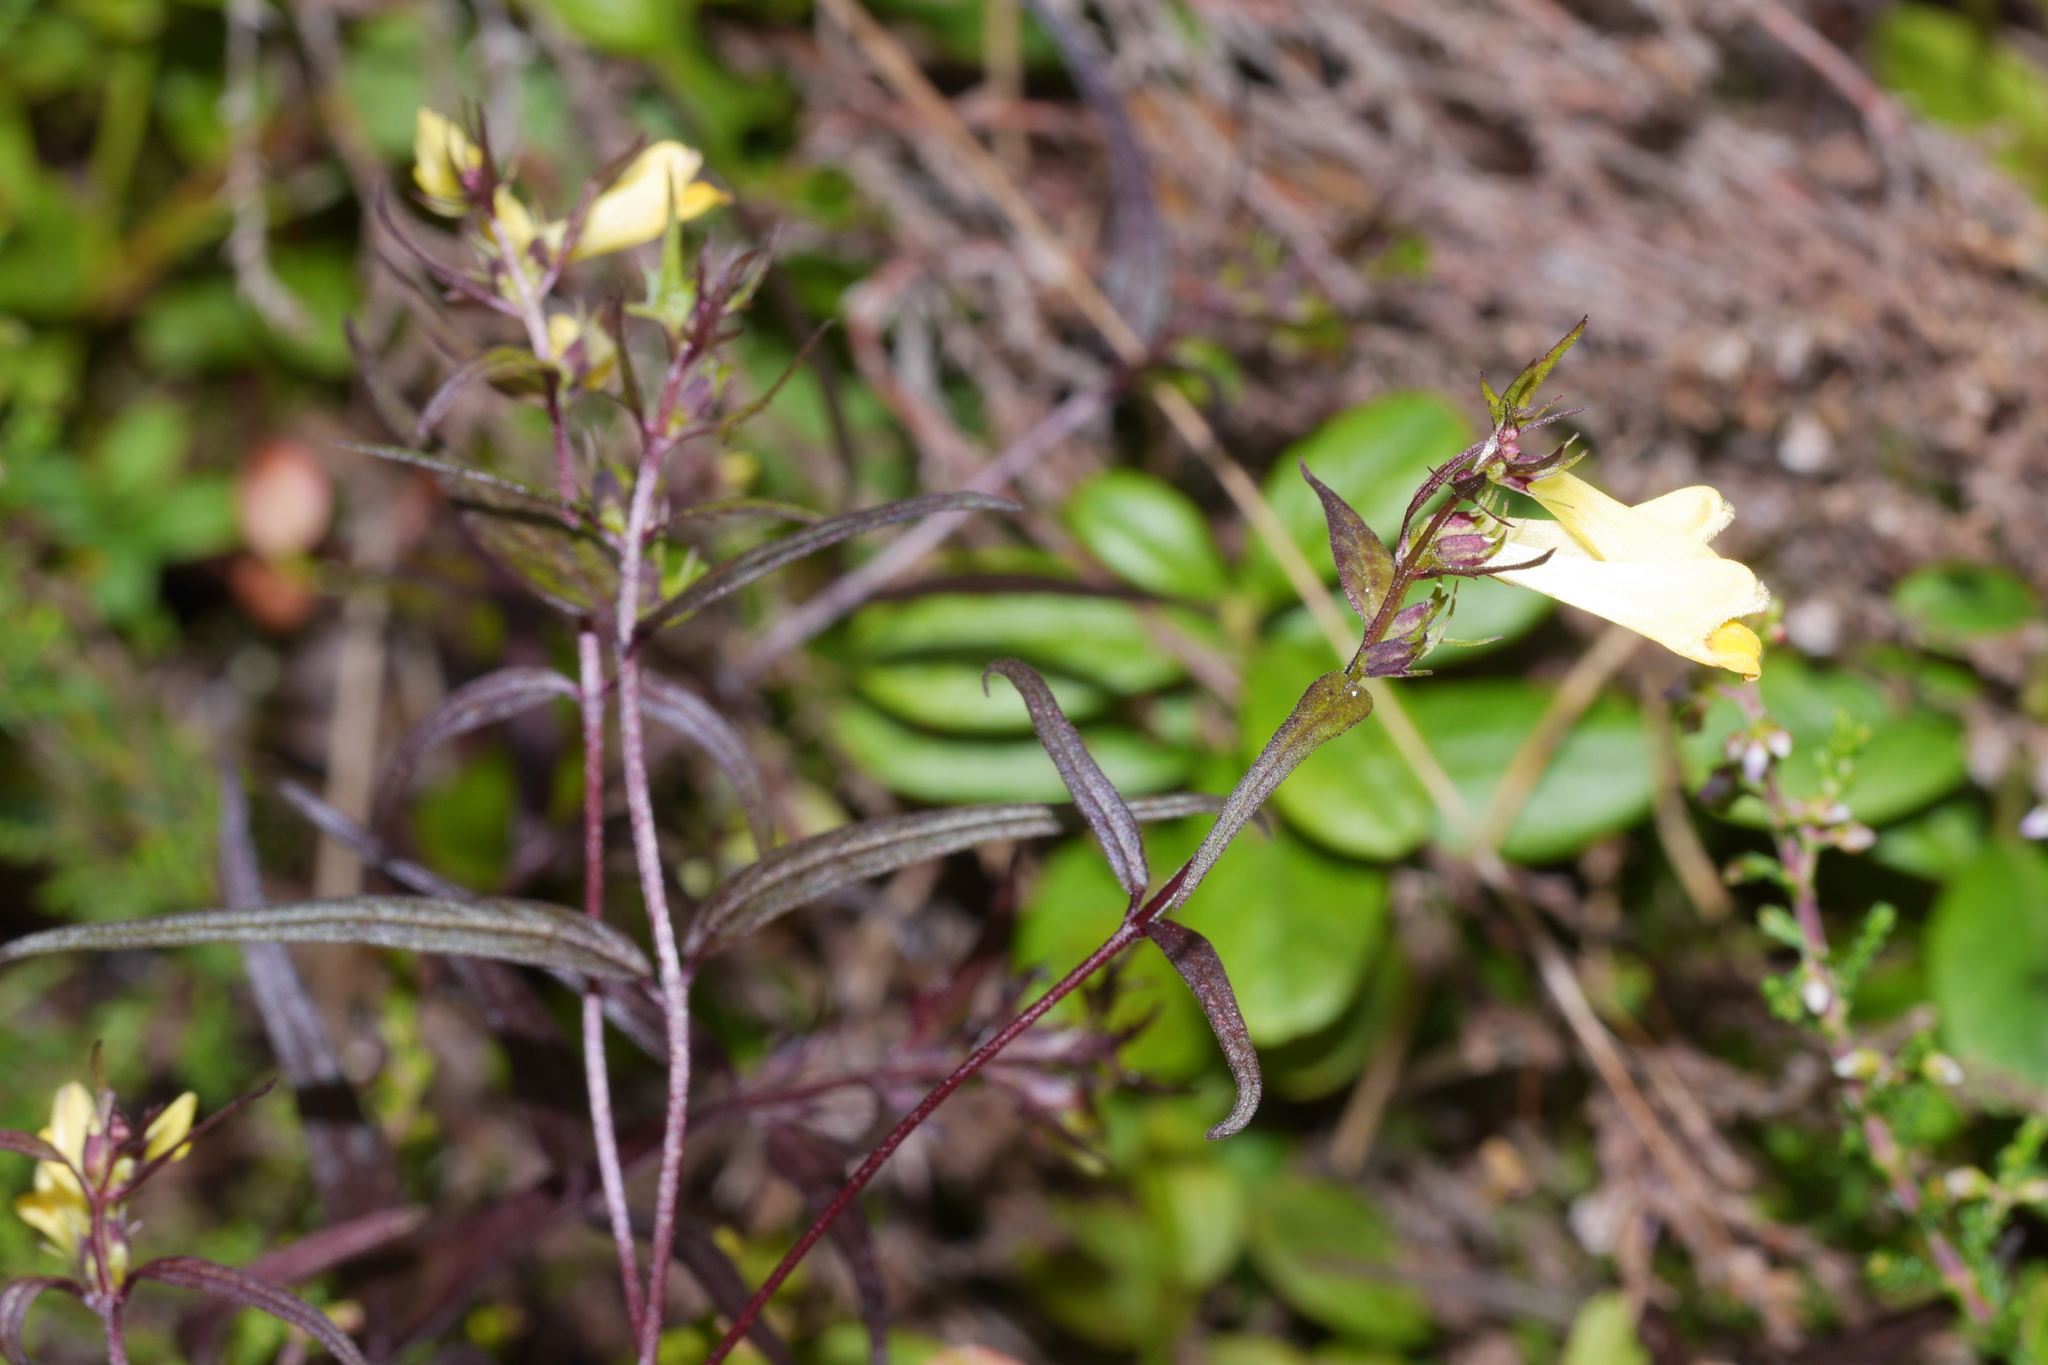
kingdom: Plantae
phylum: Tracheophyta
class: Magnoliopsida
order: Lamiales
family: Orobanchaceae
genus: Melampyrum
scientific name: Melampyrum pratense
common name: Common cow-wheat
